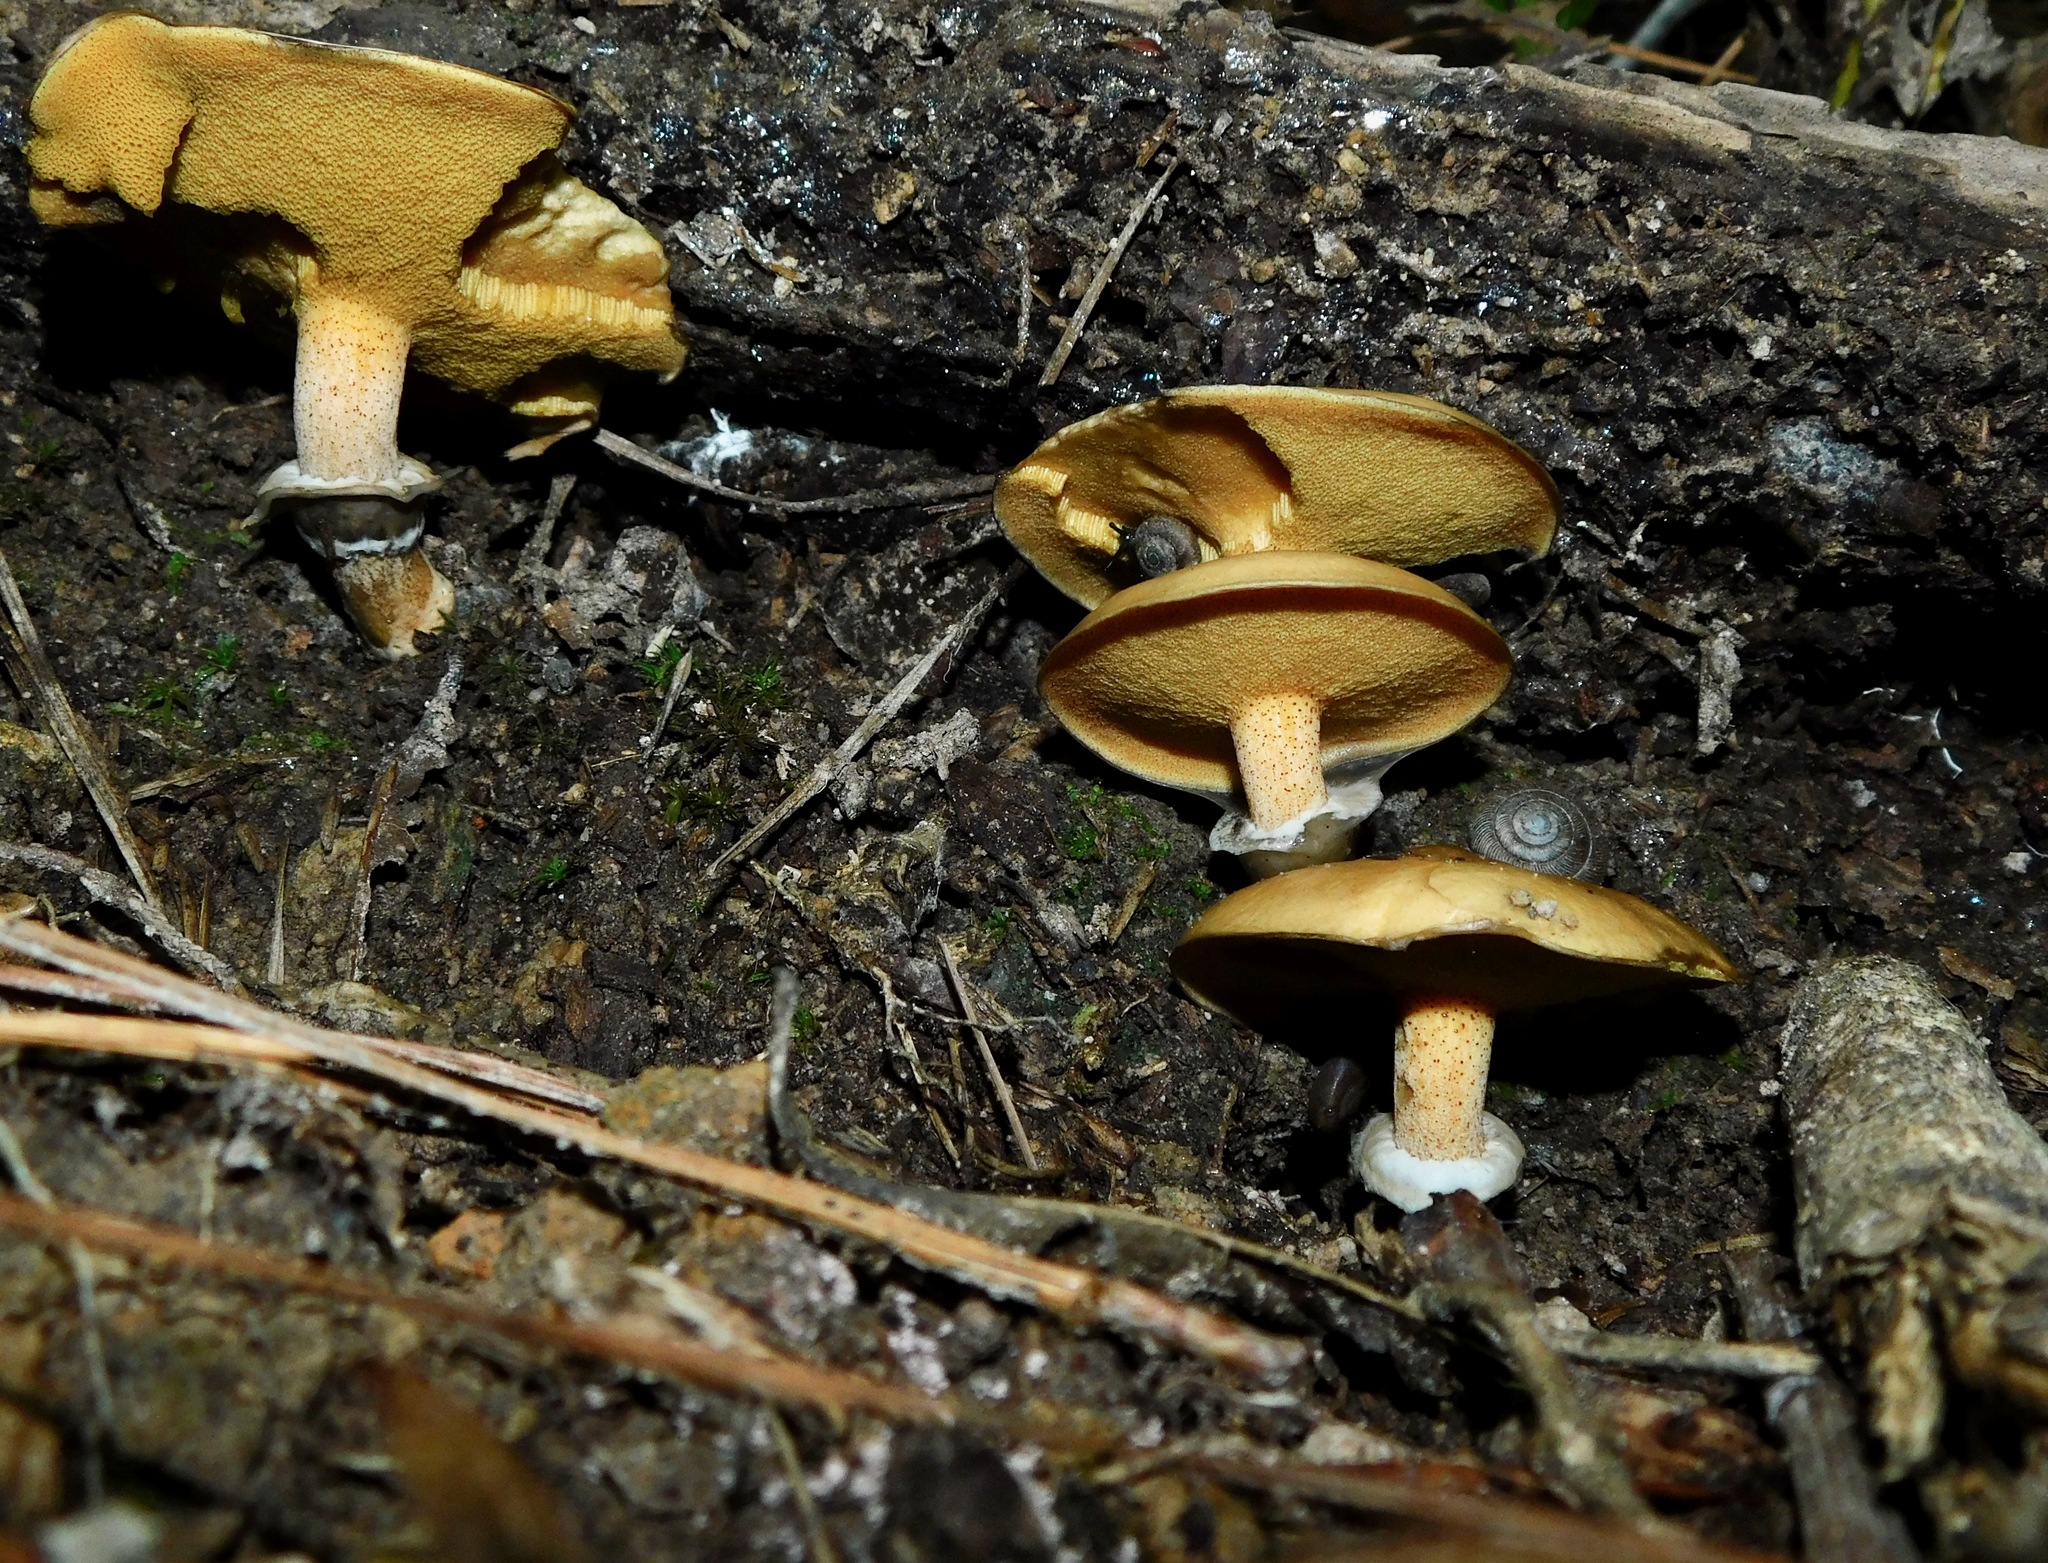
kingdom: Fungi
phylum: Basidiomycota
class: Agaricomycetes
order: Boletales
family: Suillaceae
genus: Suillus
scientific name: Suillus salmonicolor
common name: Slippery jill
